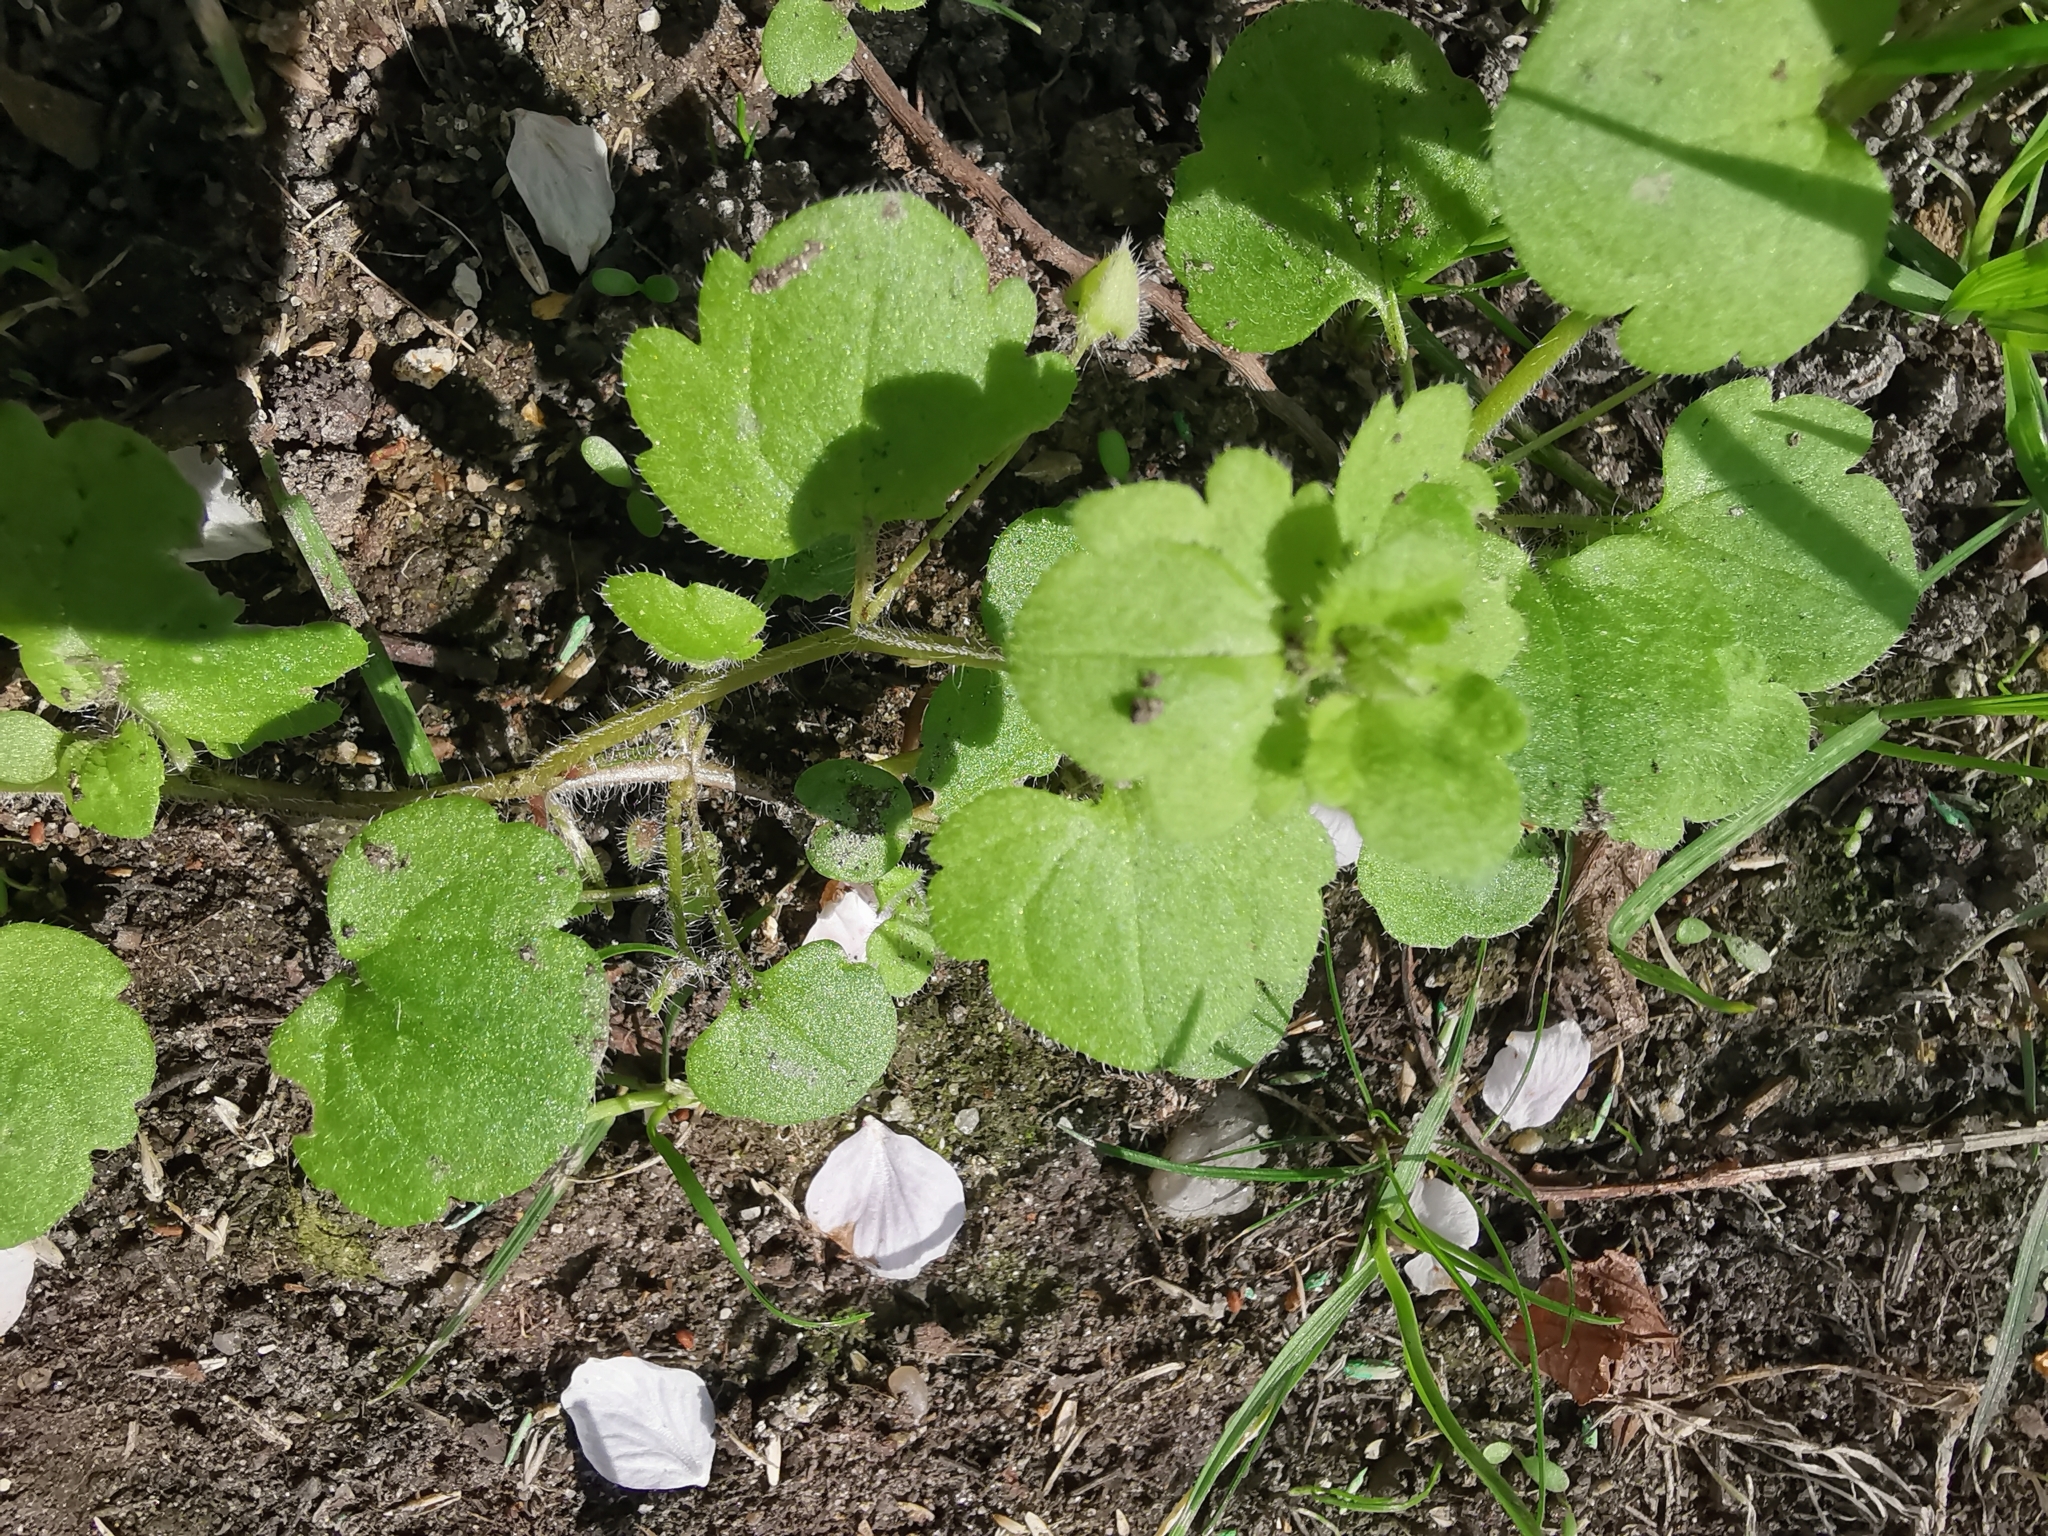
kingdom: Plantae
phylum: Tracheophyta
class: Magnoliopsida
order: Lamiales
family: Plantaginaceae
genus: Veronica
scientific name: Veronica sublobata
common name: False ivy-leaved speedwell
